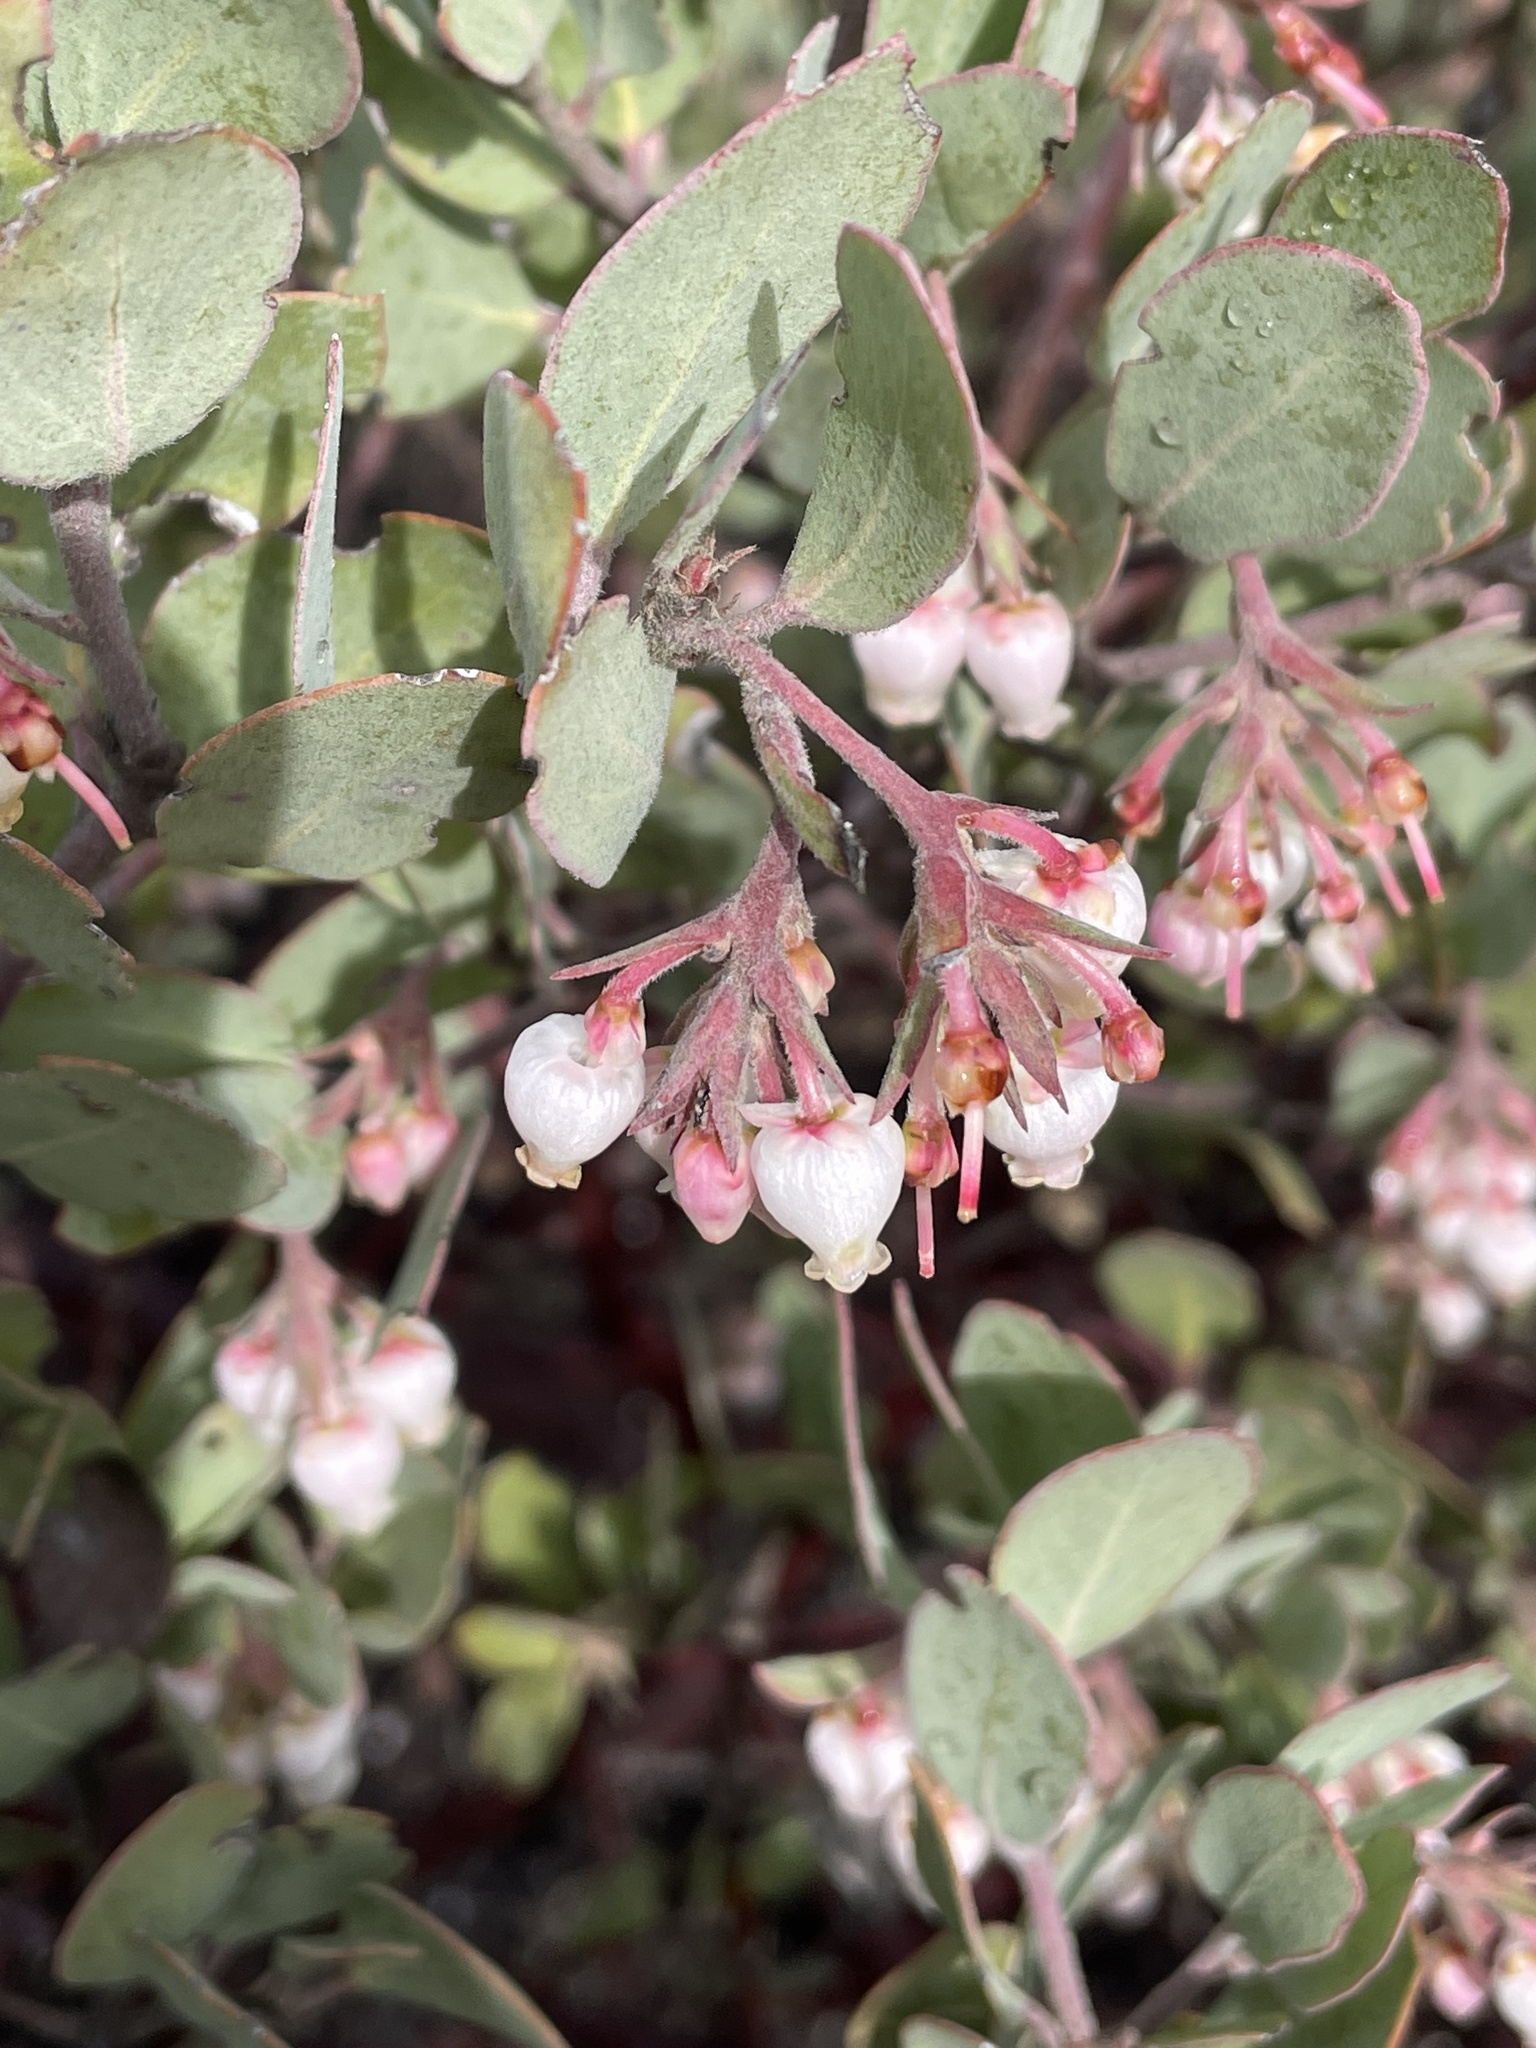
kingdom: Plantae
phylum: Tracheophyta
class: Magnoliopsida
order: Ericales
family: Ericaceae
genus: Arctostaphylos
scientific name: Arctostaphylos canescens
